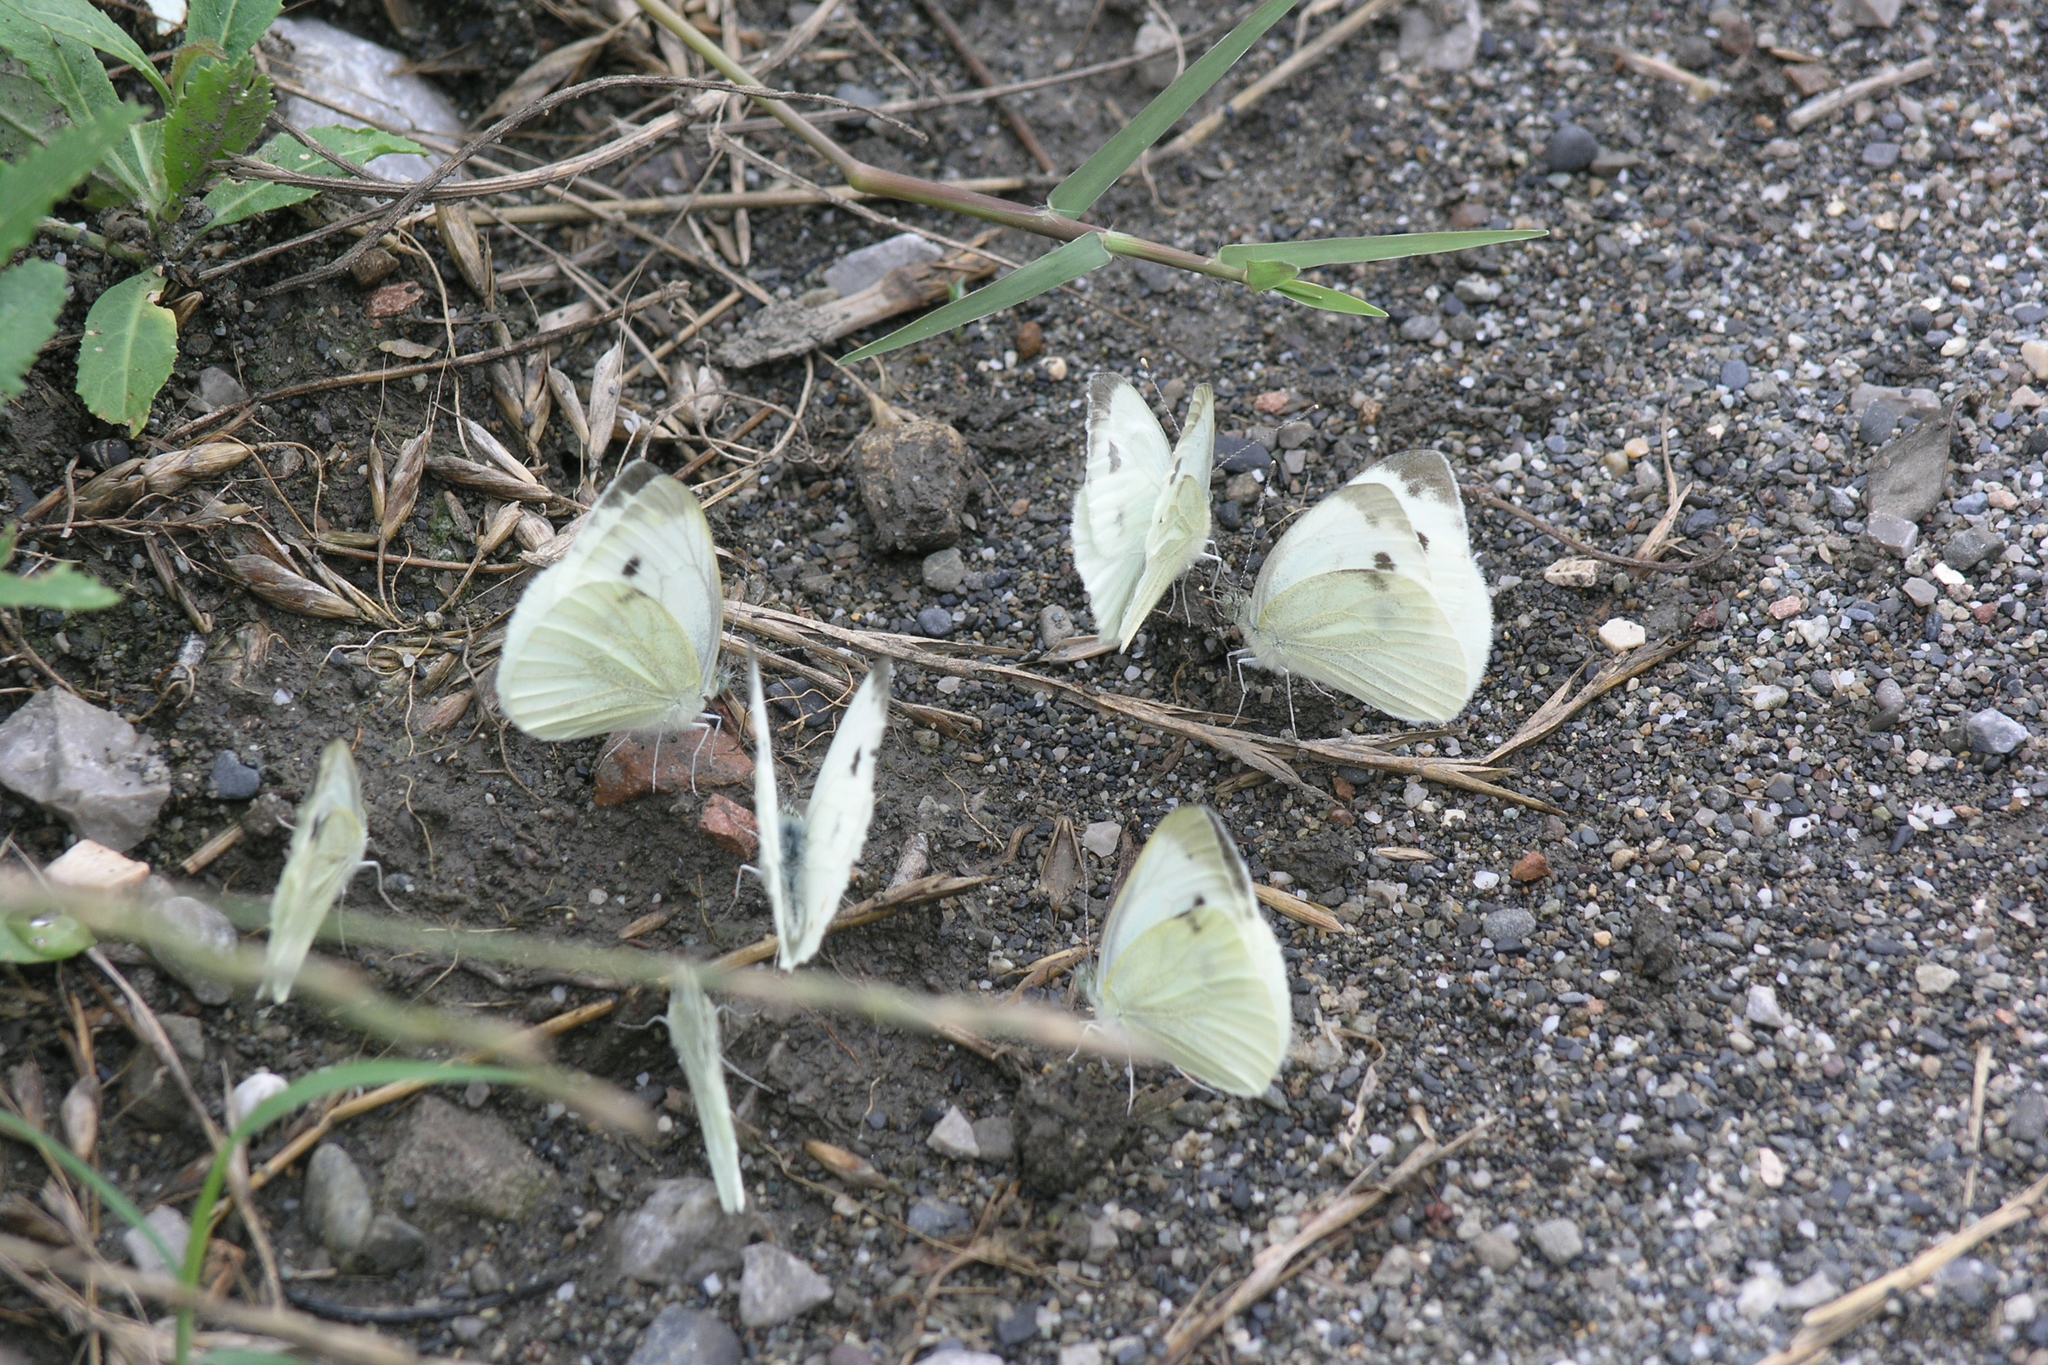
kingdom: Animalia
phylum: Arthropoda
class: Insecta
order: Lepidoptera
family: Pieridae
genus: Pieris
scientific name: Pieris napi
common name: Green-veined white
